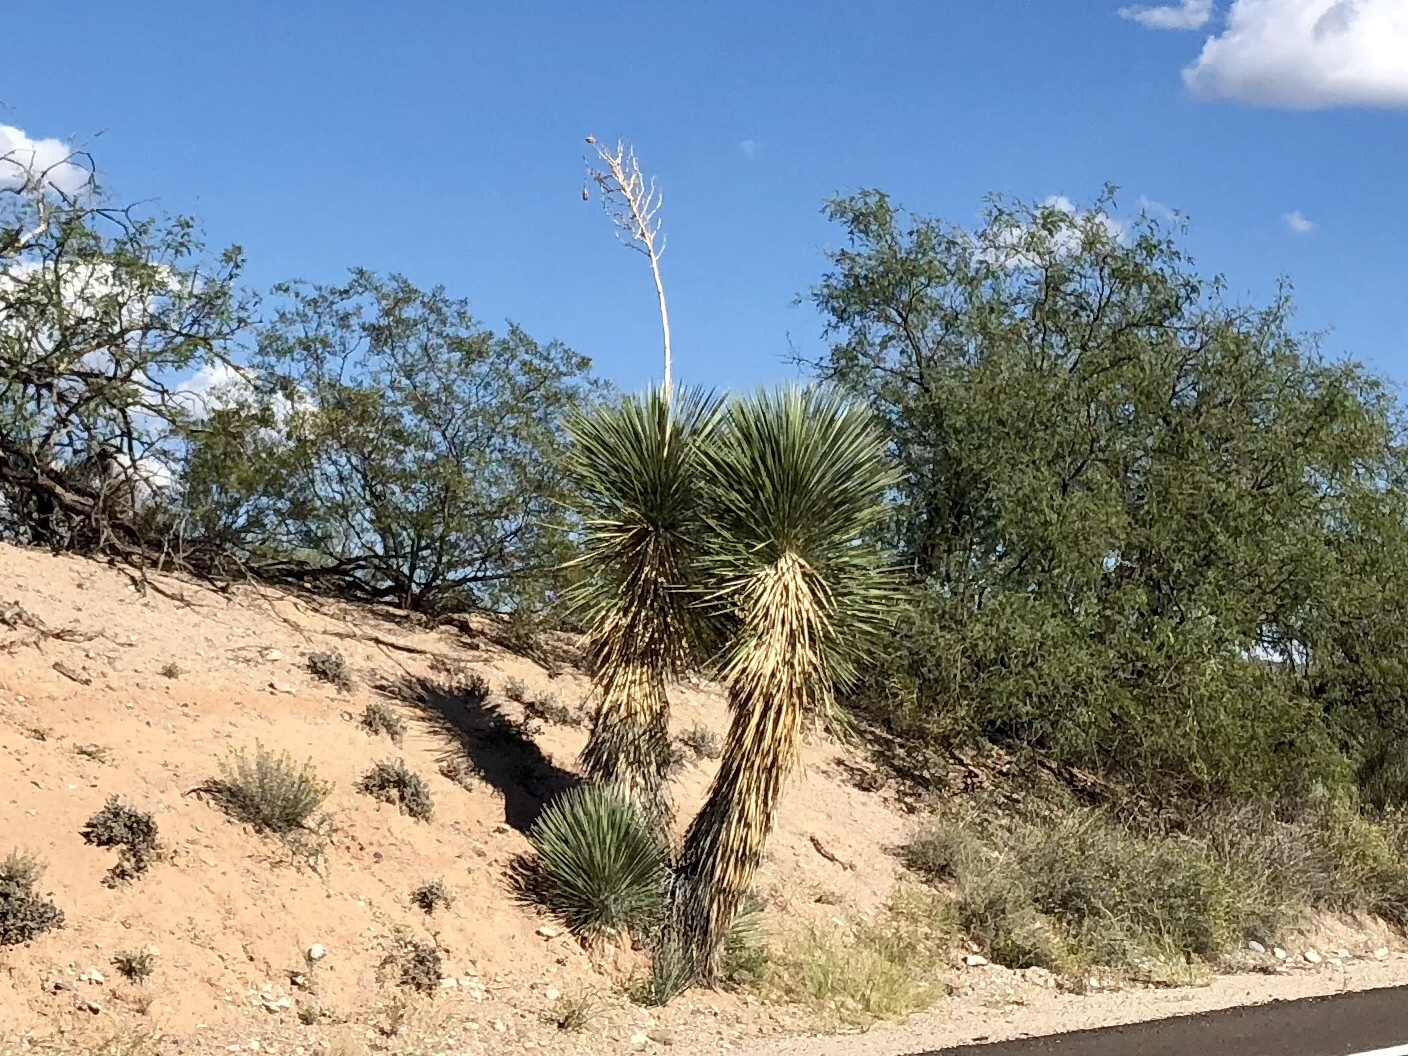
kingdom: Plantae
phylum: Tracheophyta
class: Liliopsida
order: Asparagales
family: Asparagaceae
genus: Yucca
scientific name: Yucca elata
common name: Palmella
